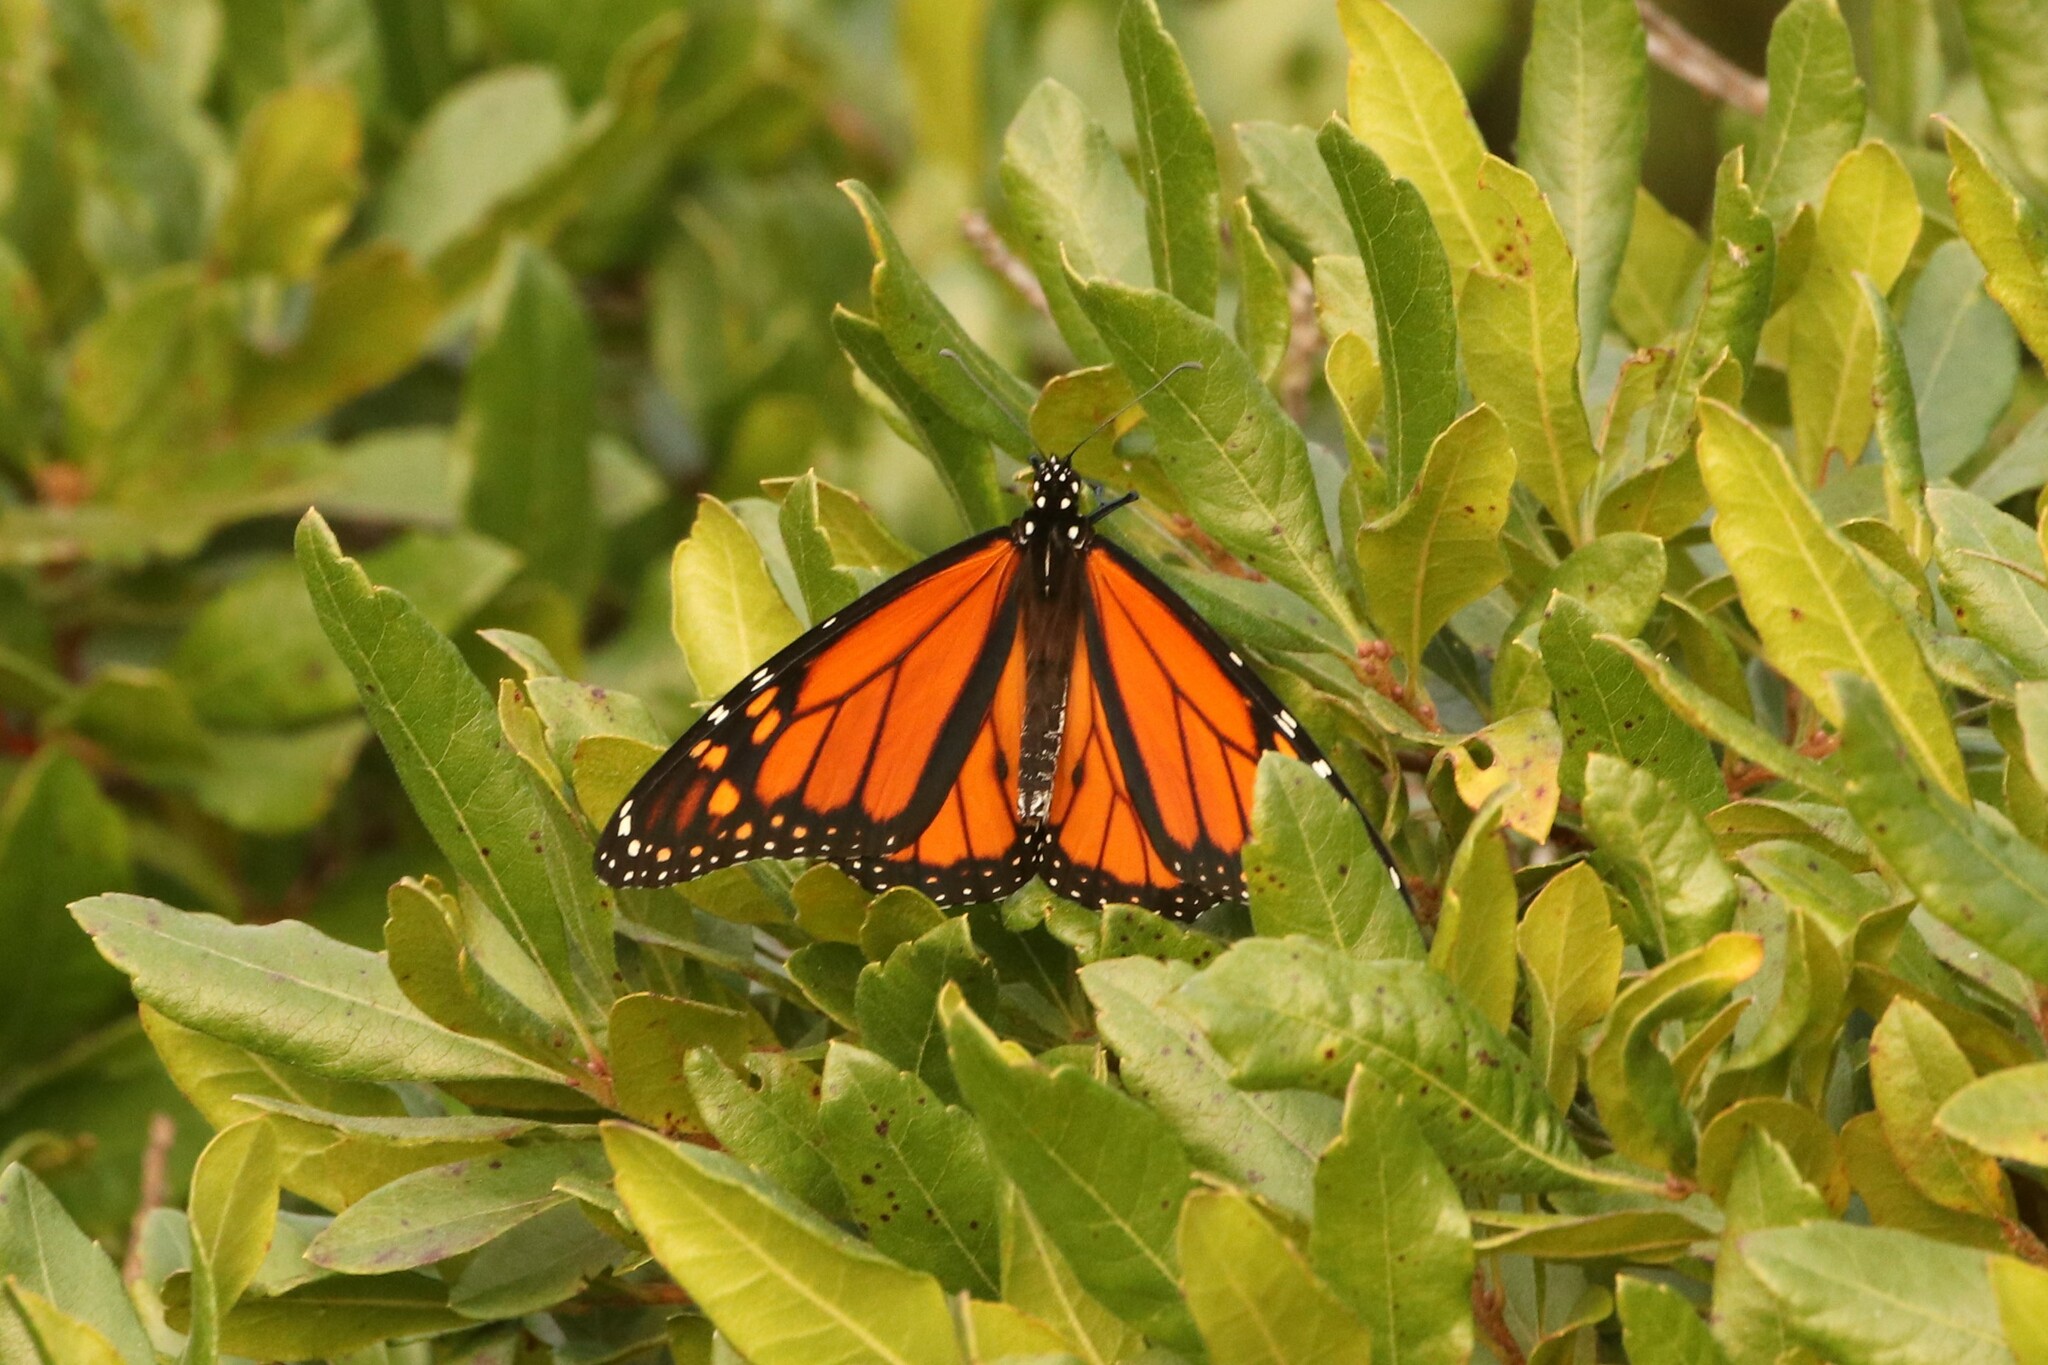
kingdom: Animalia
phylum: Arthropoda
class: Insecta
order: Lepidoptera
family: Nymphalidae
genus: Danaus
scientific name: Danaus plexippus
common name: Monarch
